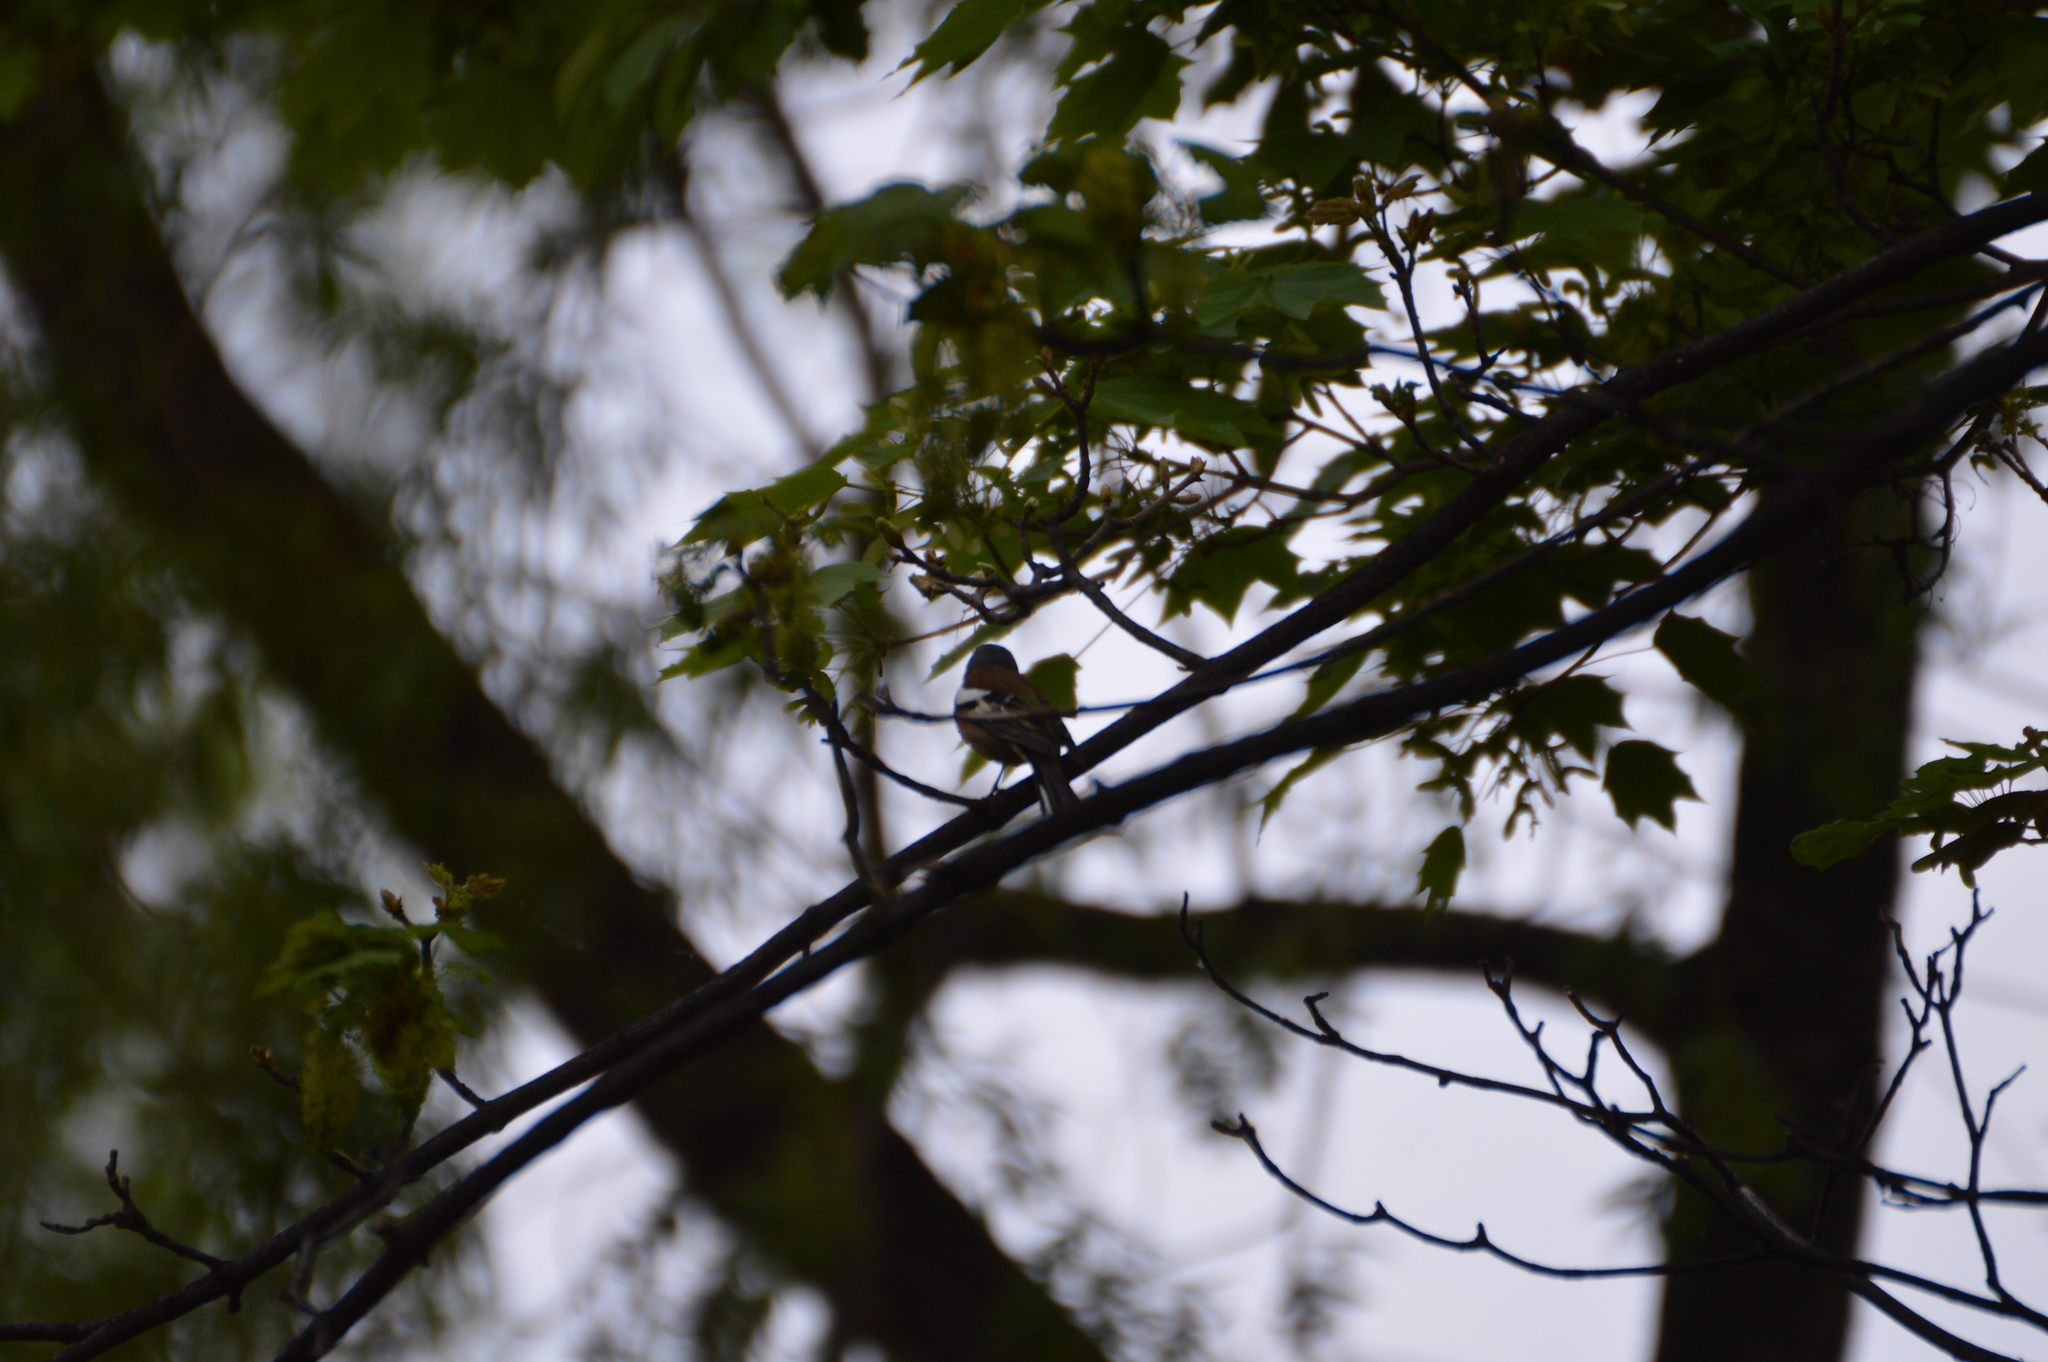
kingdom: Animalia
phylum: Chordata
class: Aves
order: Passeriformes
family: Fringillidae
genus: Fringilla
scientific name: Fringilla coelebs
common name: Common chaffinch
